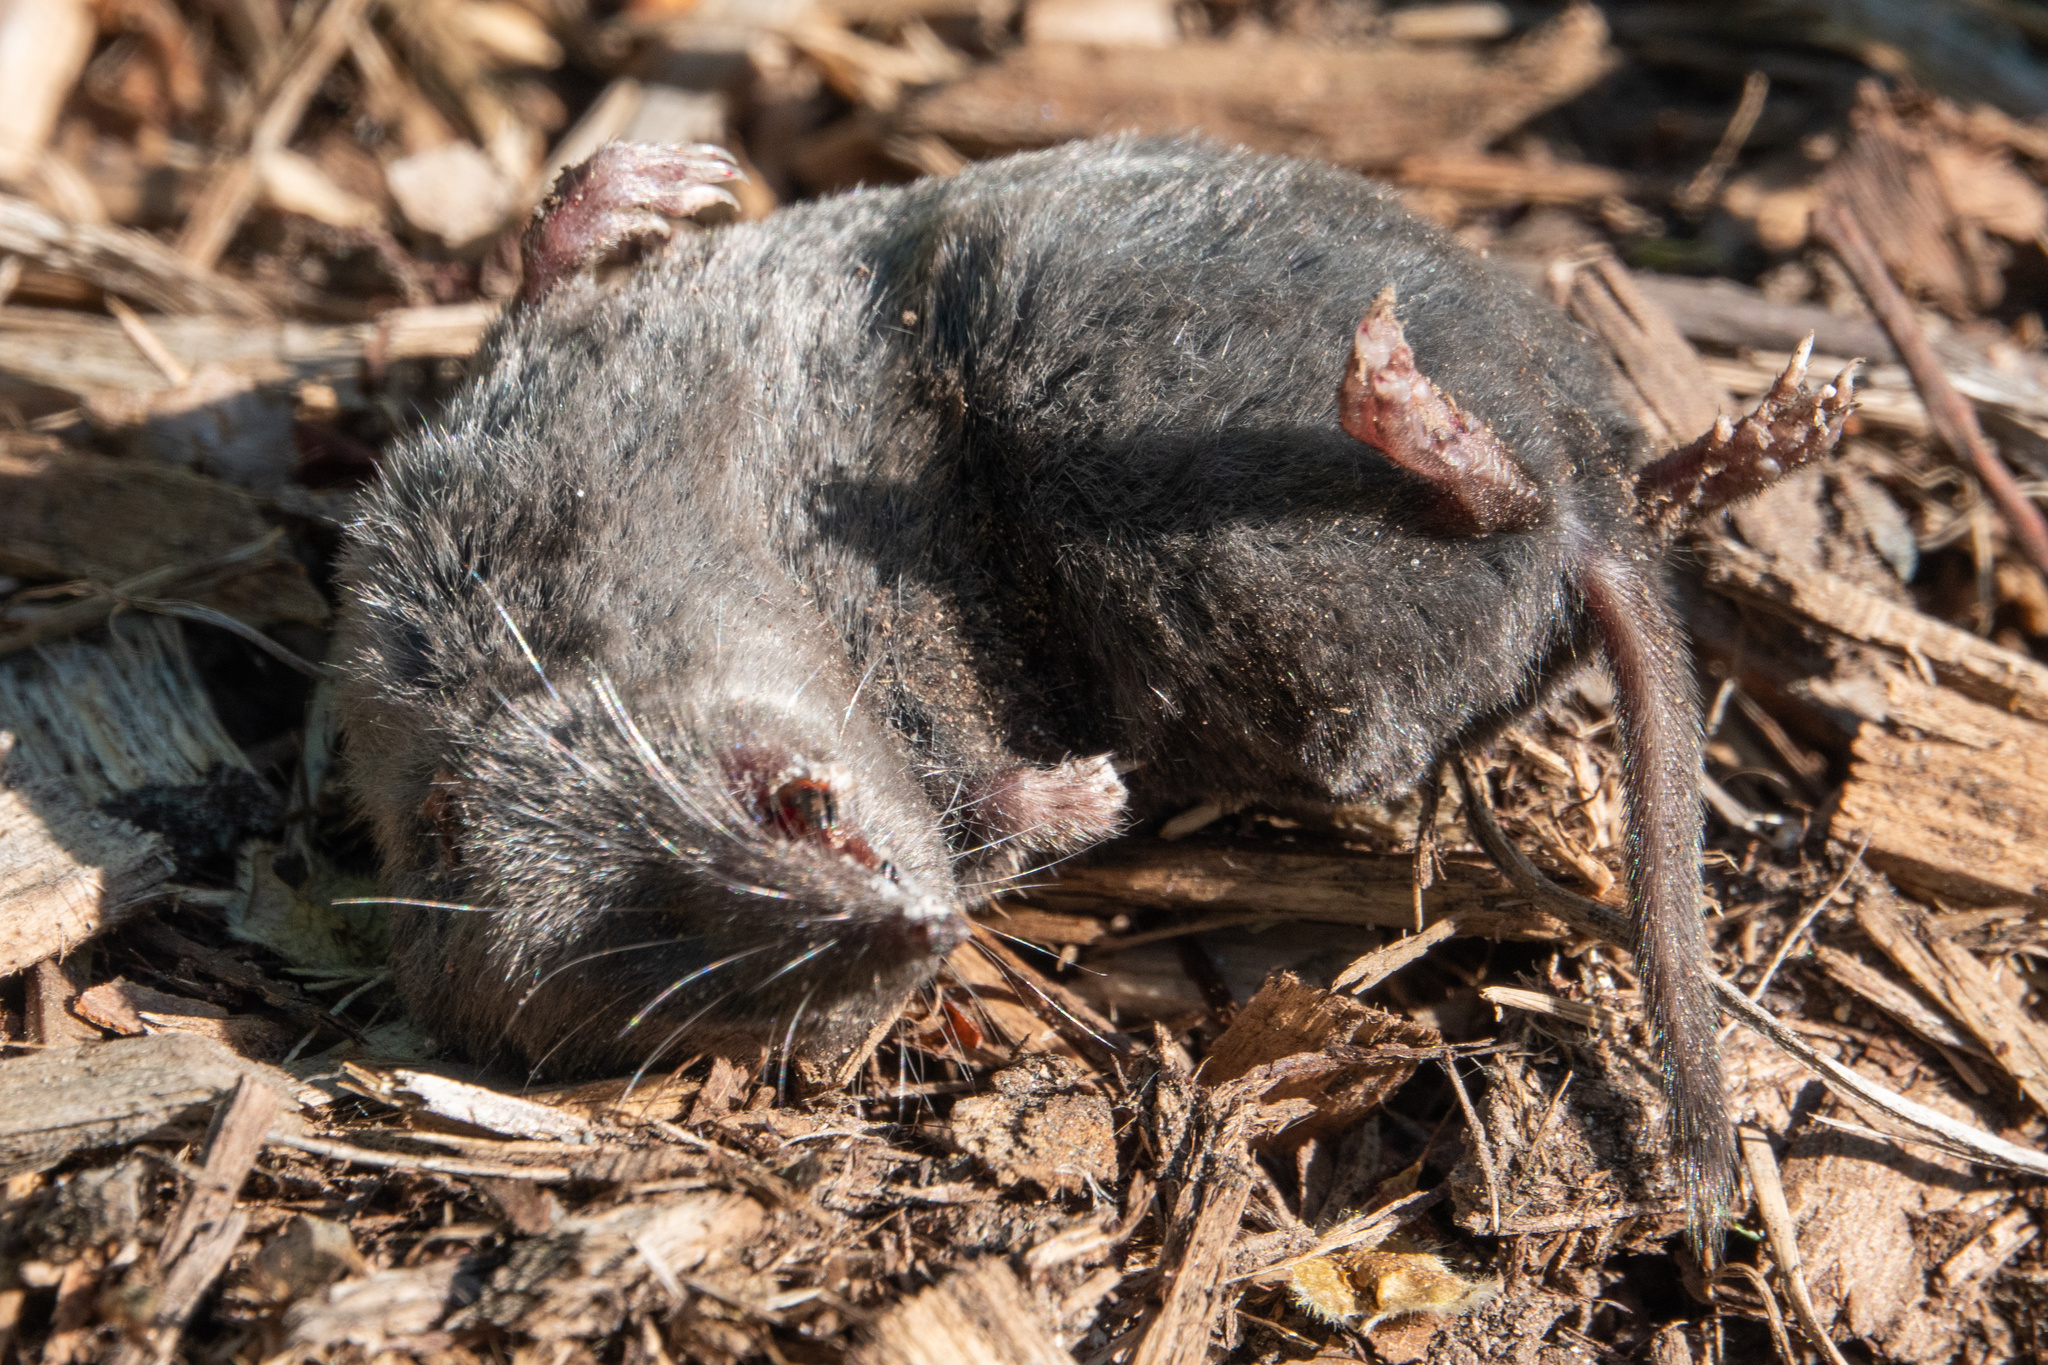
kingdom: Animalia
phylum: Chordata
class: Mammalia
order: Soricomorpha
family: Soricidae
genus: Blarina
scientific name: Blarina brevicauda
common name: Northern short-tailed shrew
